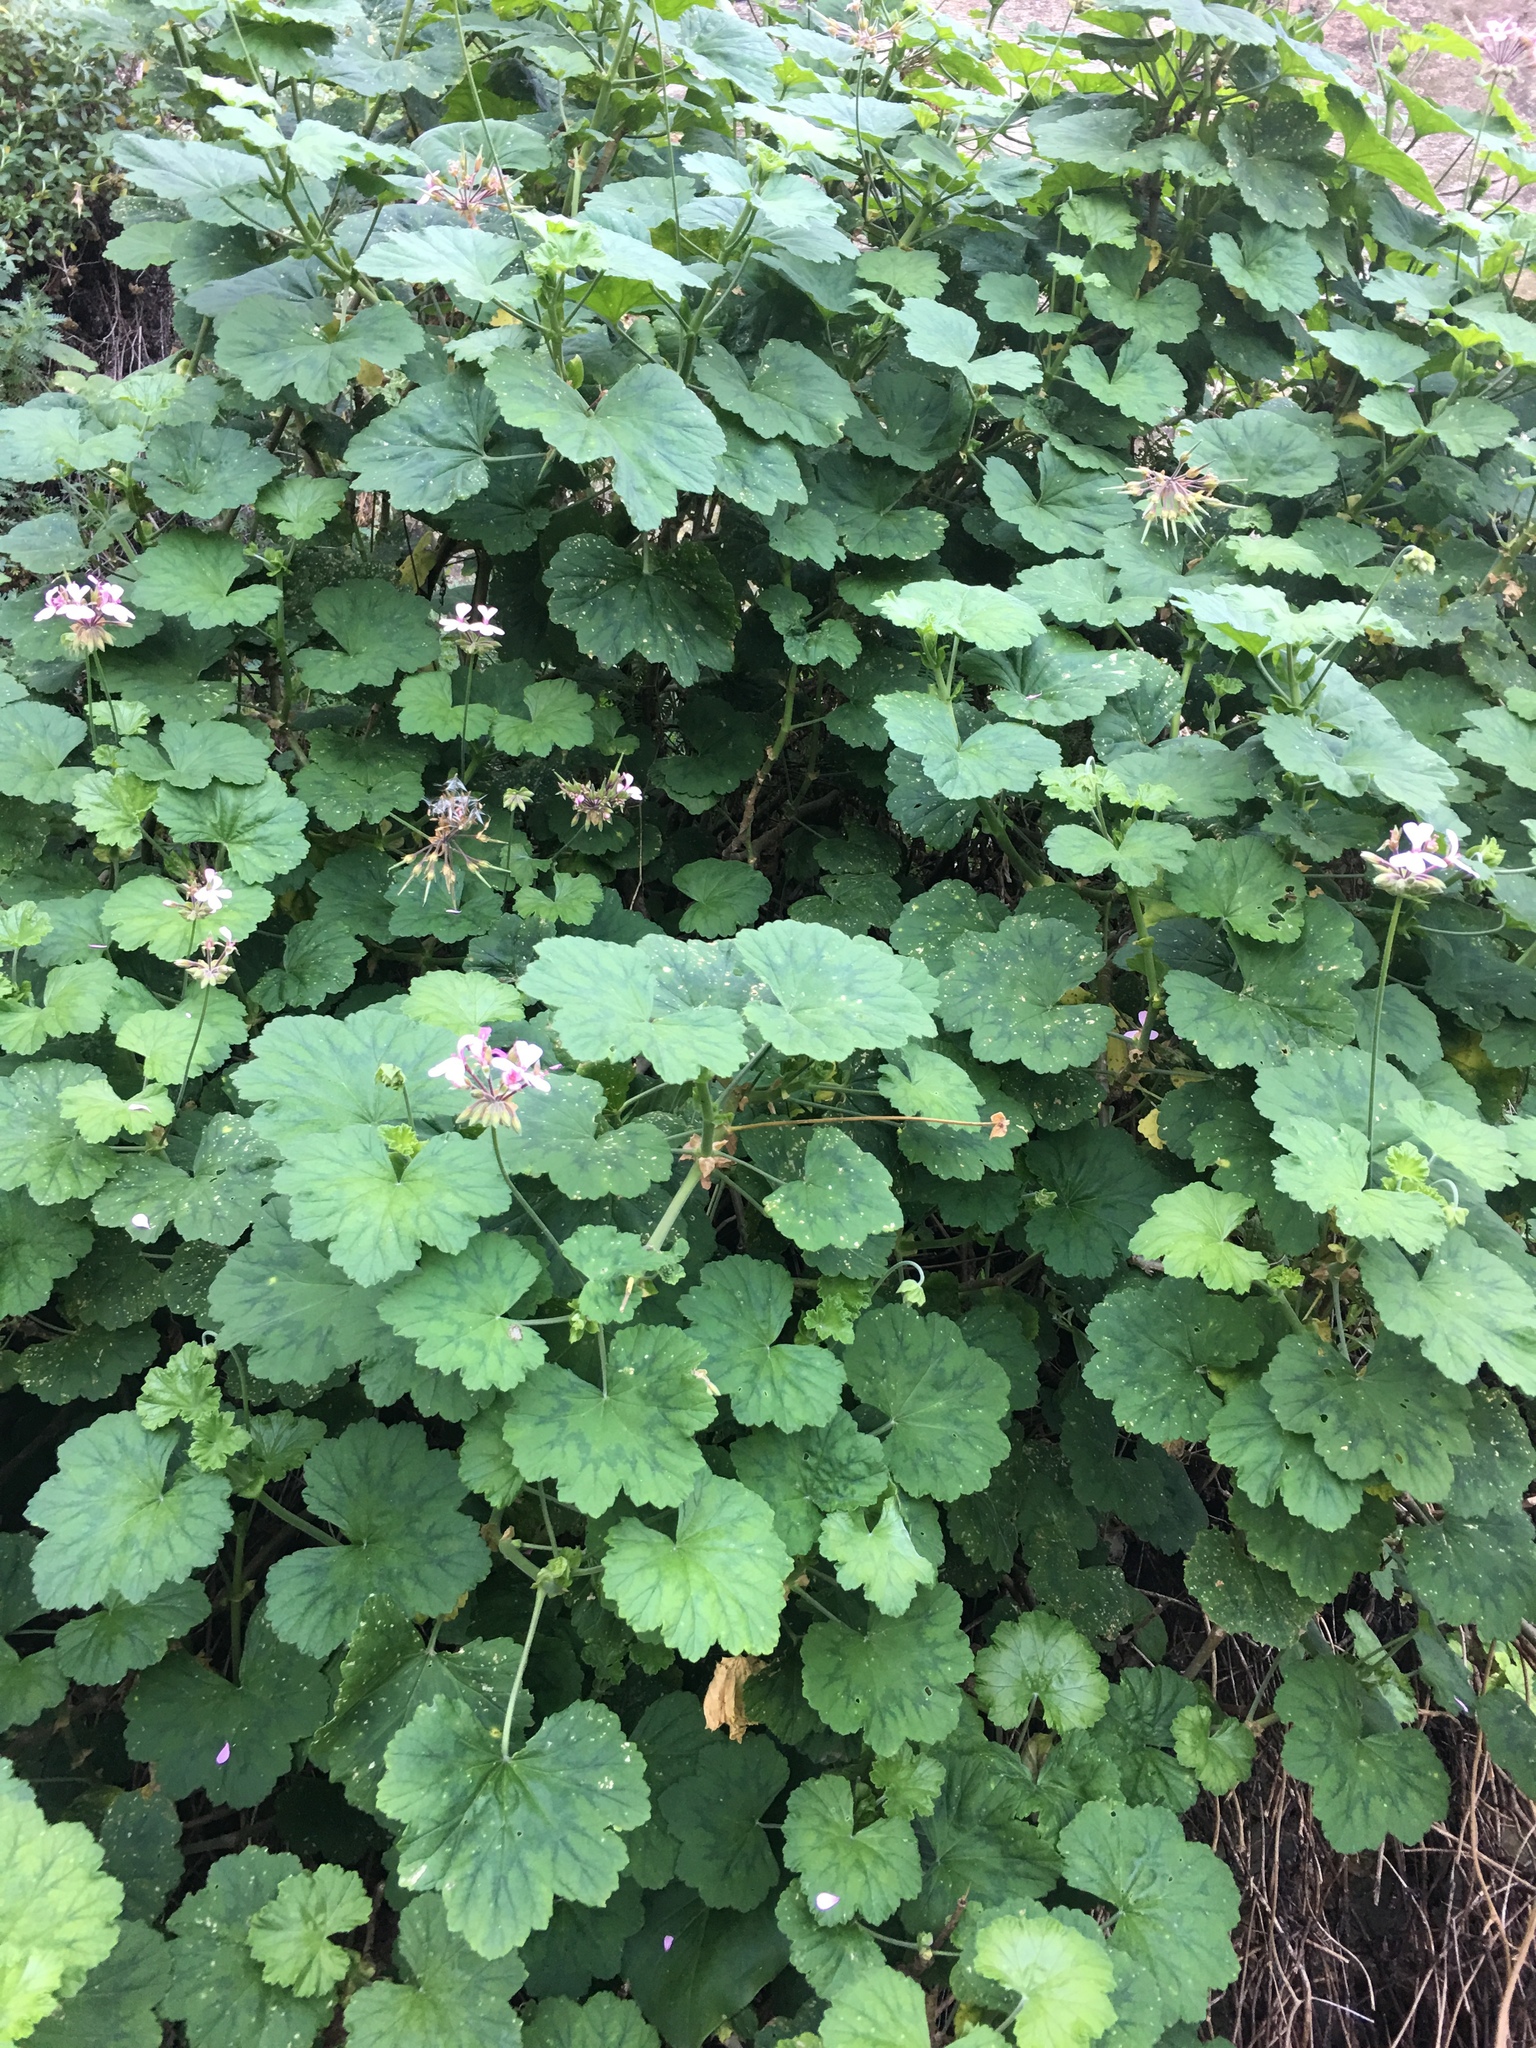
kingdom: Plantae
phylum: Tracheophyta
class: Magnoliopsida
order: Geraniales
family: Geraniaceae
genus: Pelargonium
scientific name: Pelargonium zonale
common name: Horseshoe geranium
